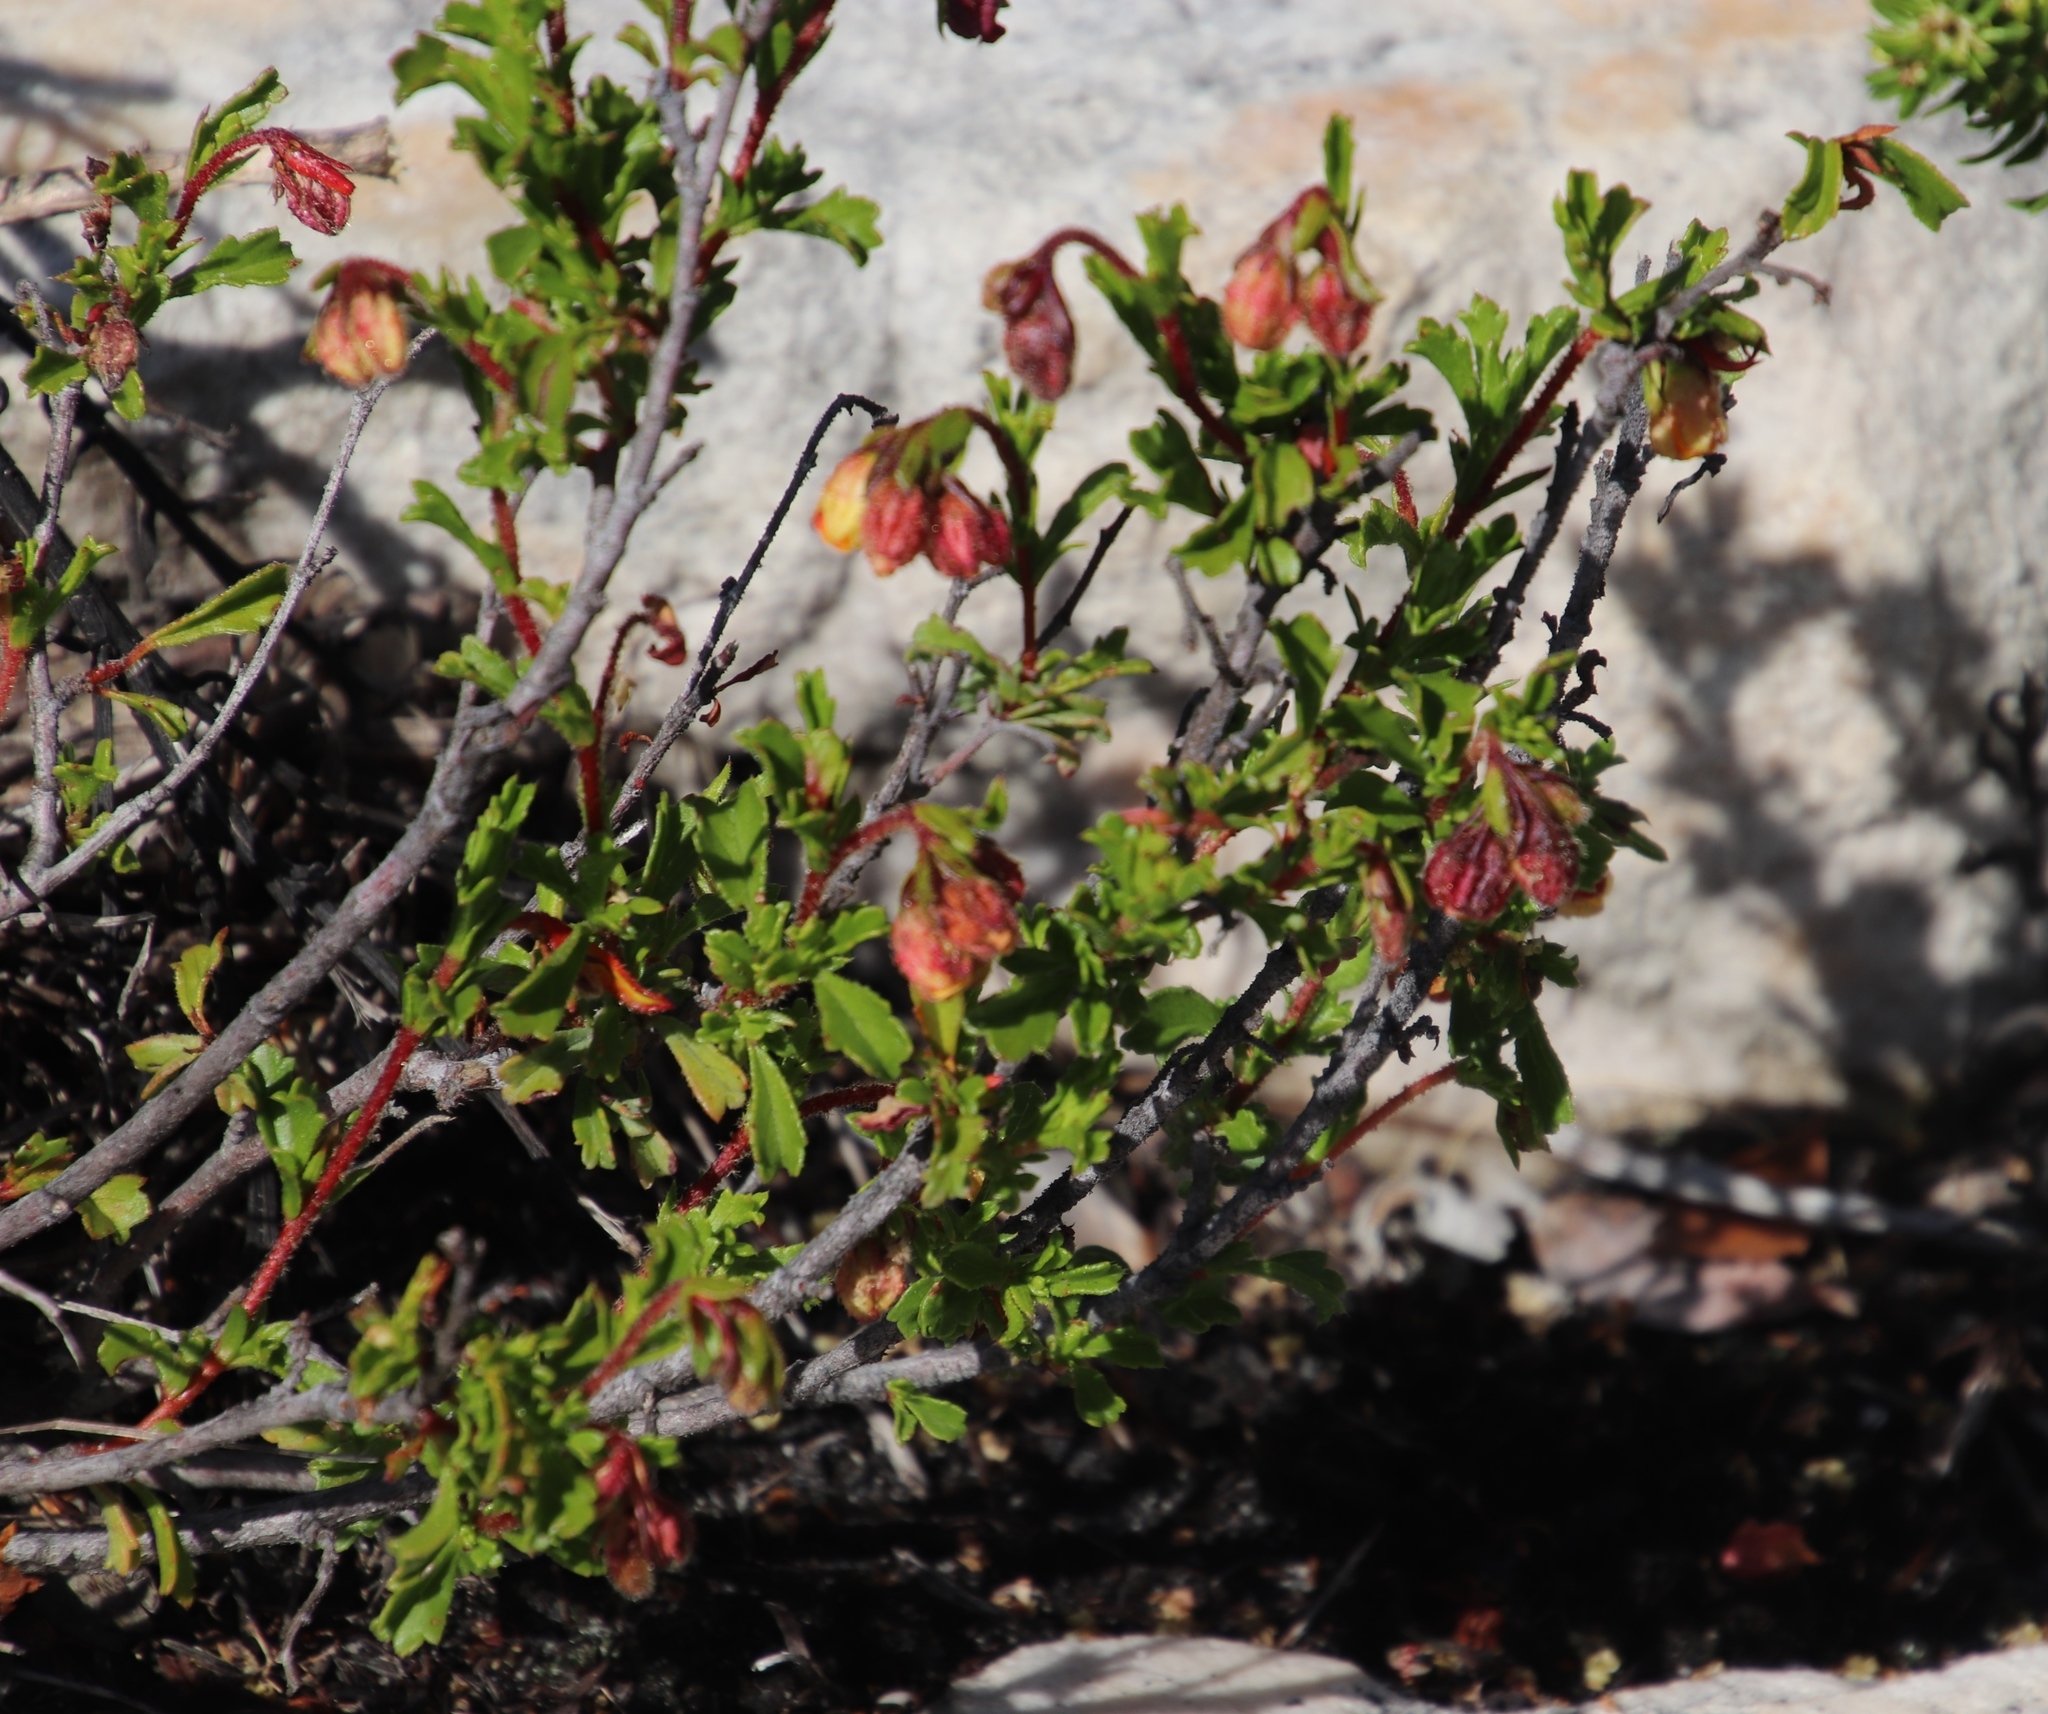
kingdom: Plantae
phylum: Tracheophyta
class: Magnoliopsida
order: Malvales
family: Malvaceae
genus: Hermannia
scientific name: Hermannia rudis
